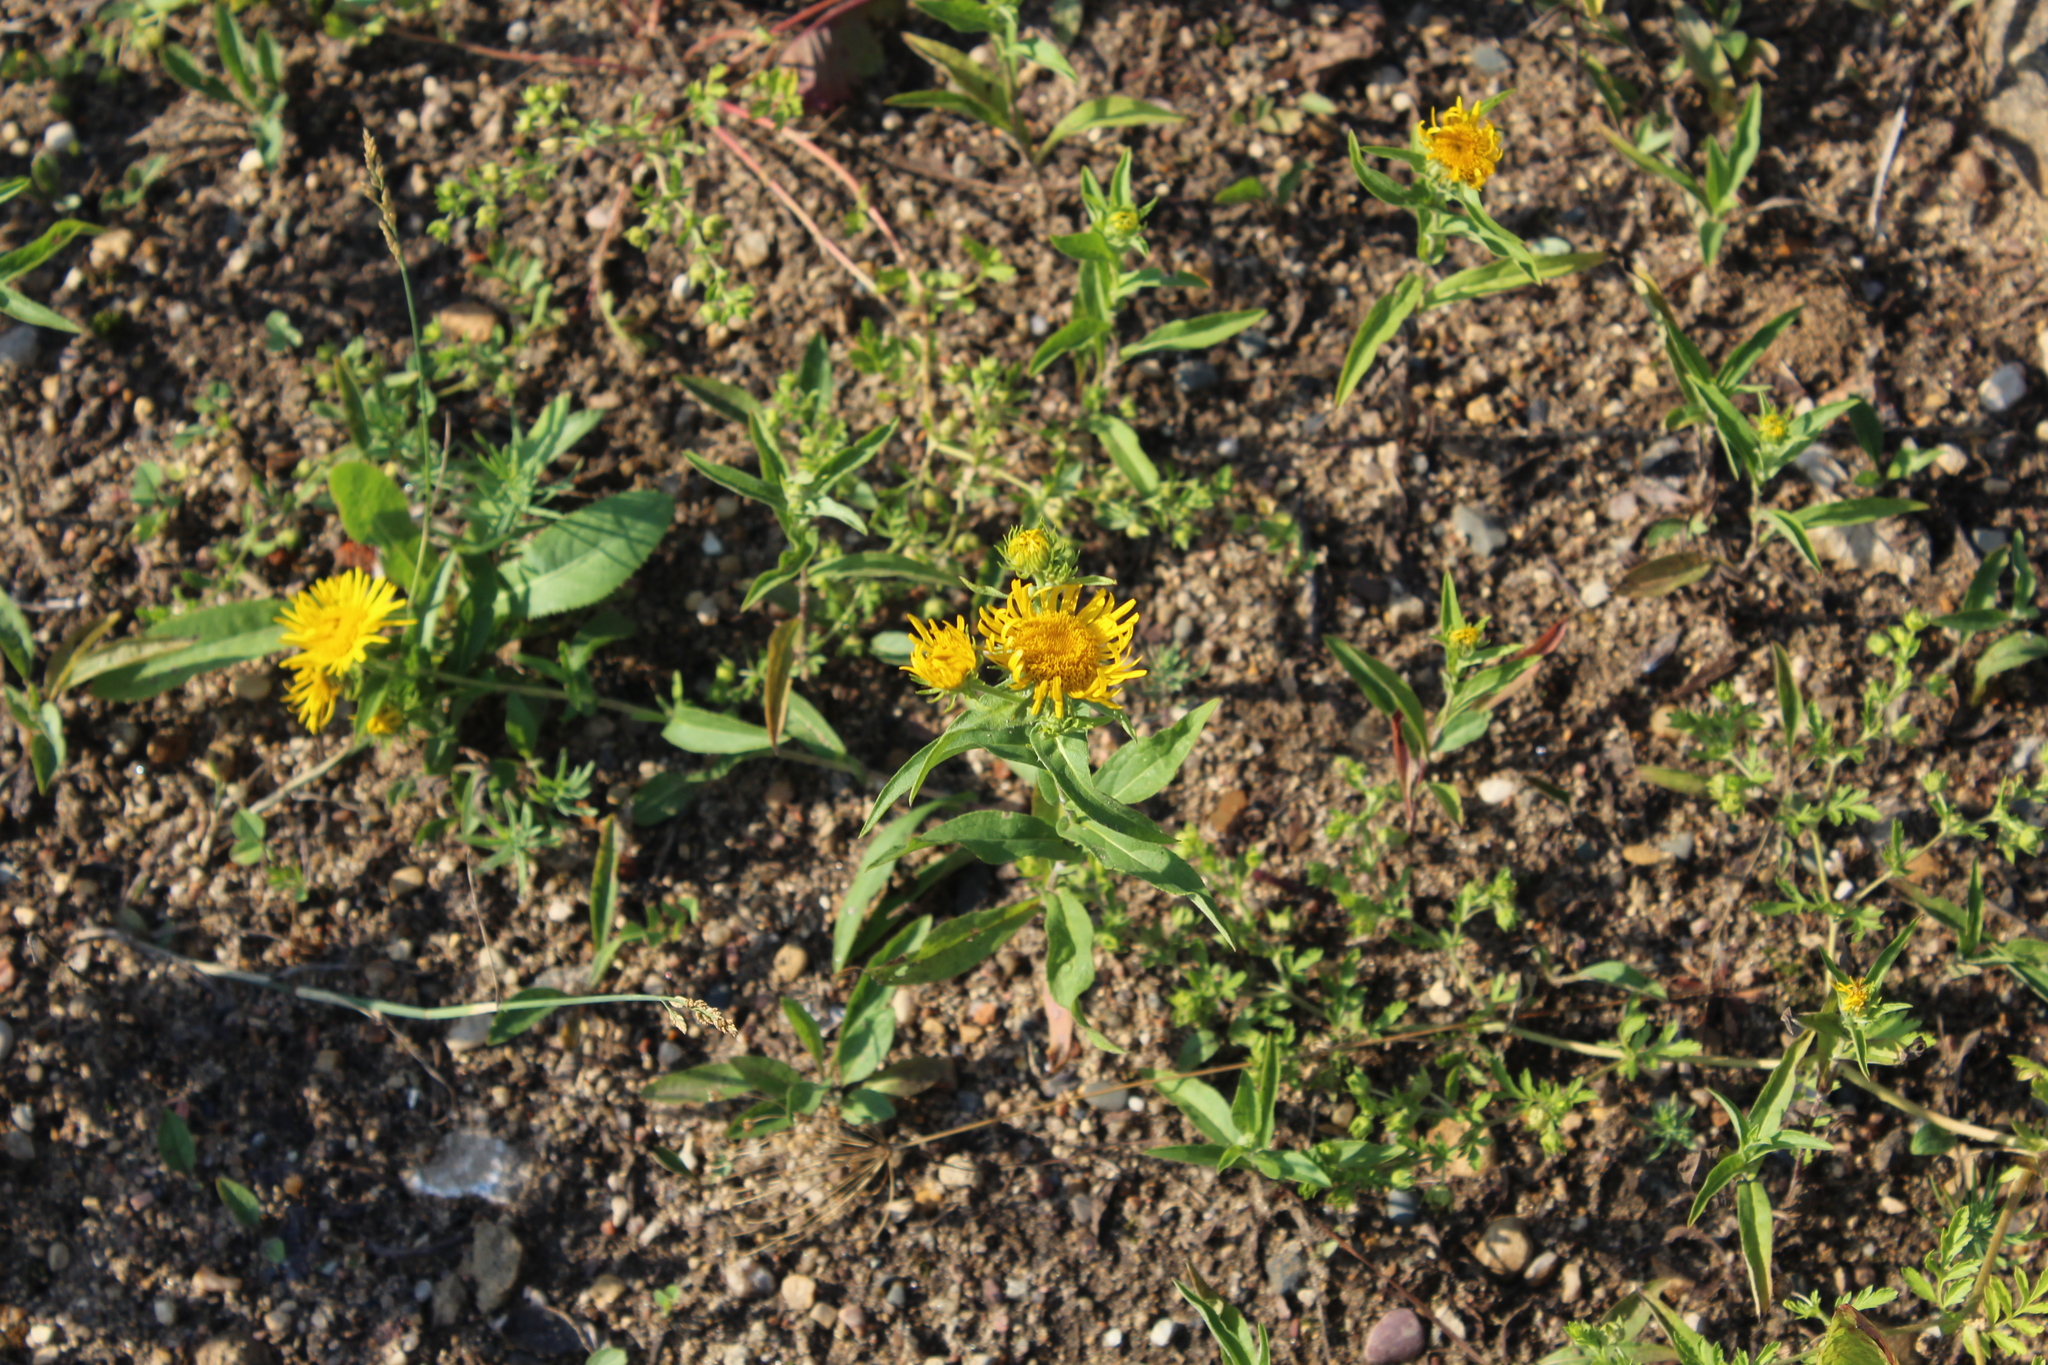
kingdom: Plantae
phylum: Tracheophyta
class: Magnoliopsida
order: Asterales
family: Asteraceae
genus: Pentanema
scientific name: Pentanema britannicum
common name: British elecampane
